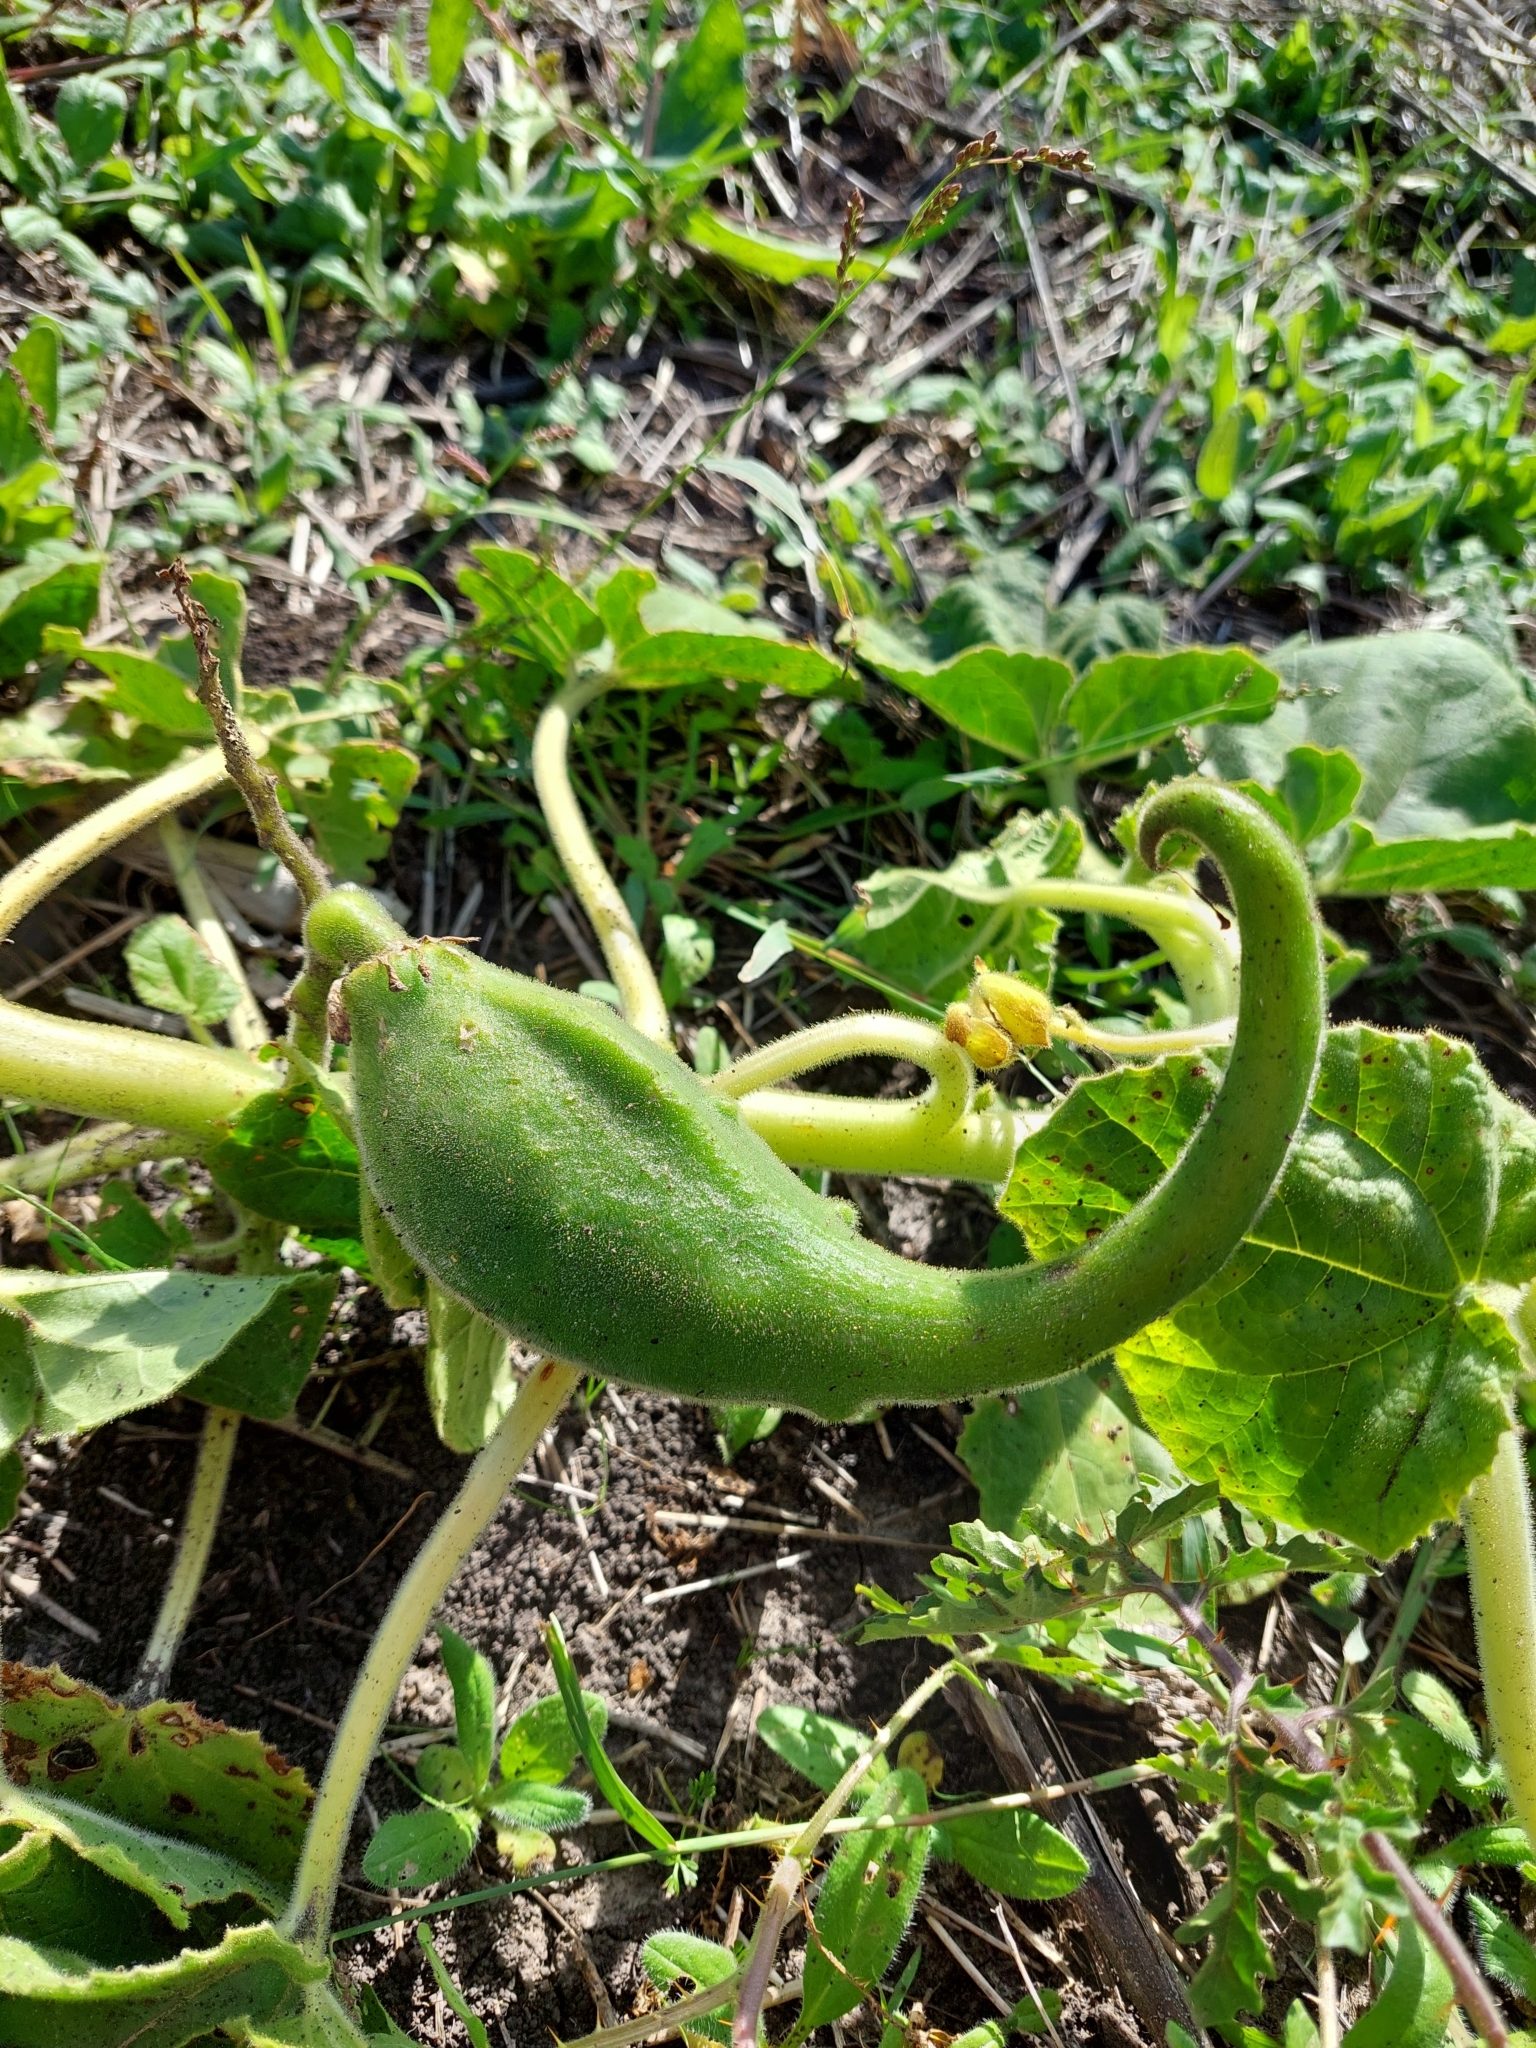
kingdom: Plantae
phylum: Tracheophyta
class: Magnoliopsida
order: Lamiales
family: Martyniaceae
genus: Ibicella
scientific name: Ibicella lutea
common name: Yellow unicorn-plant
